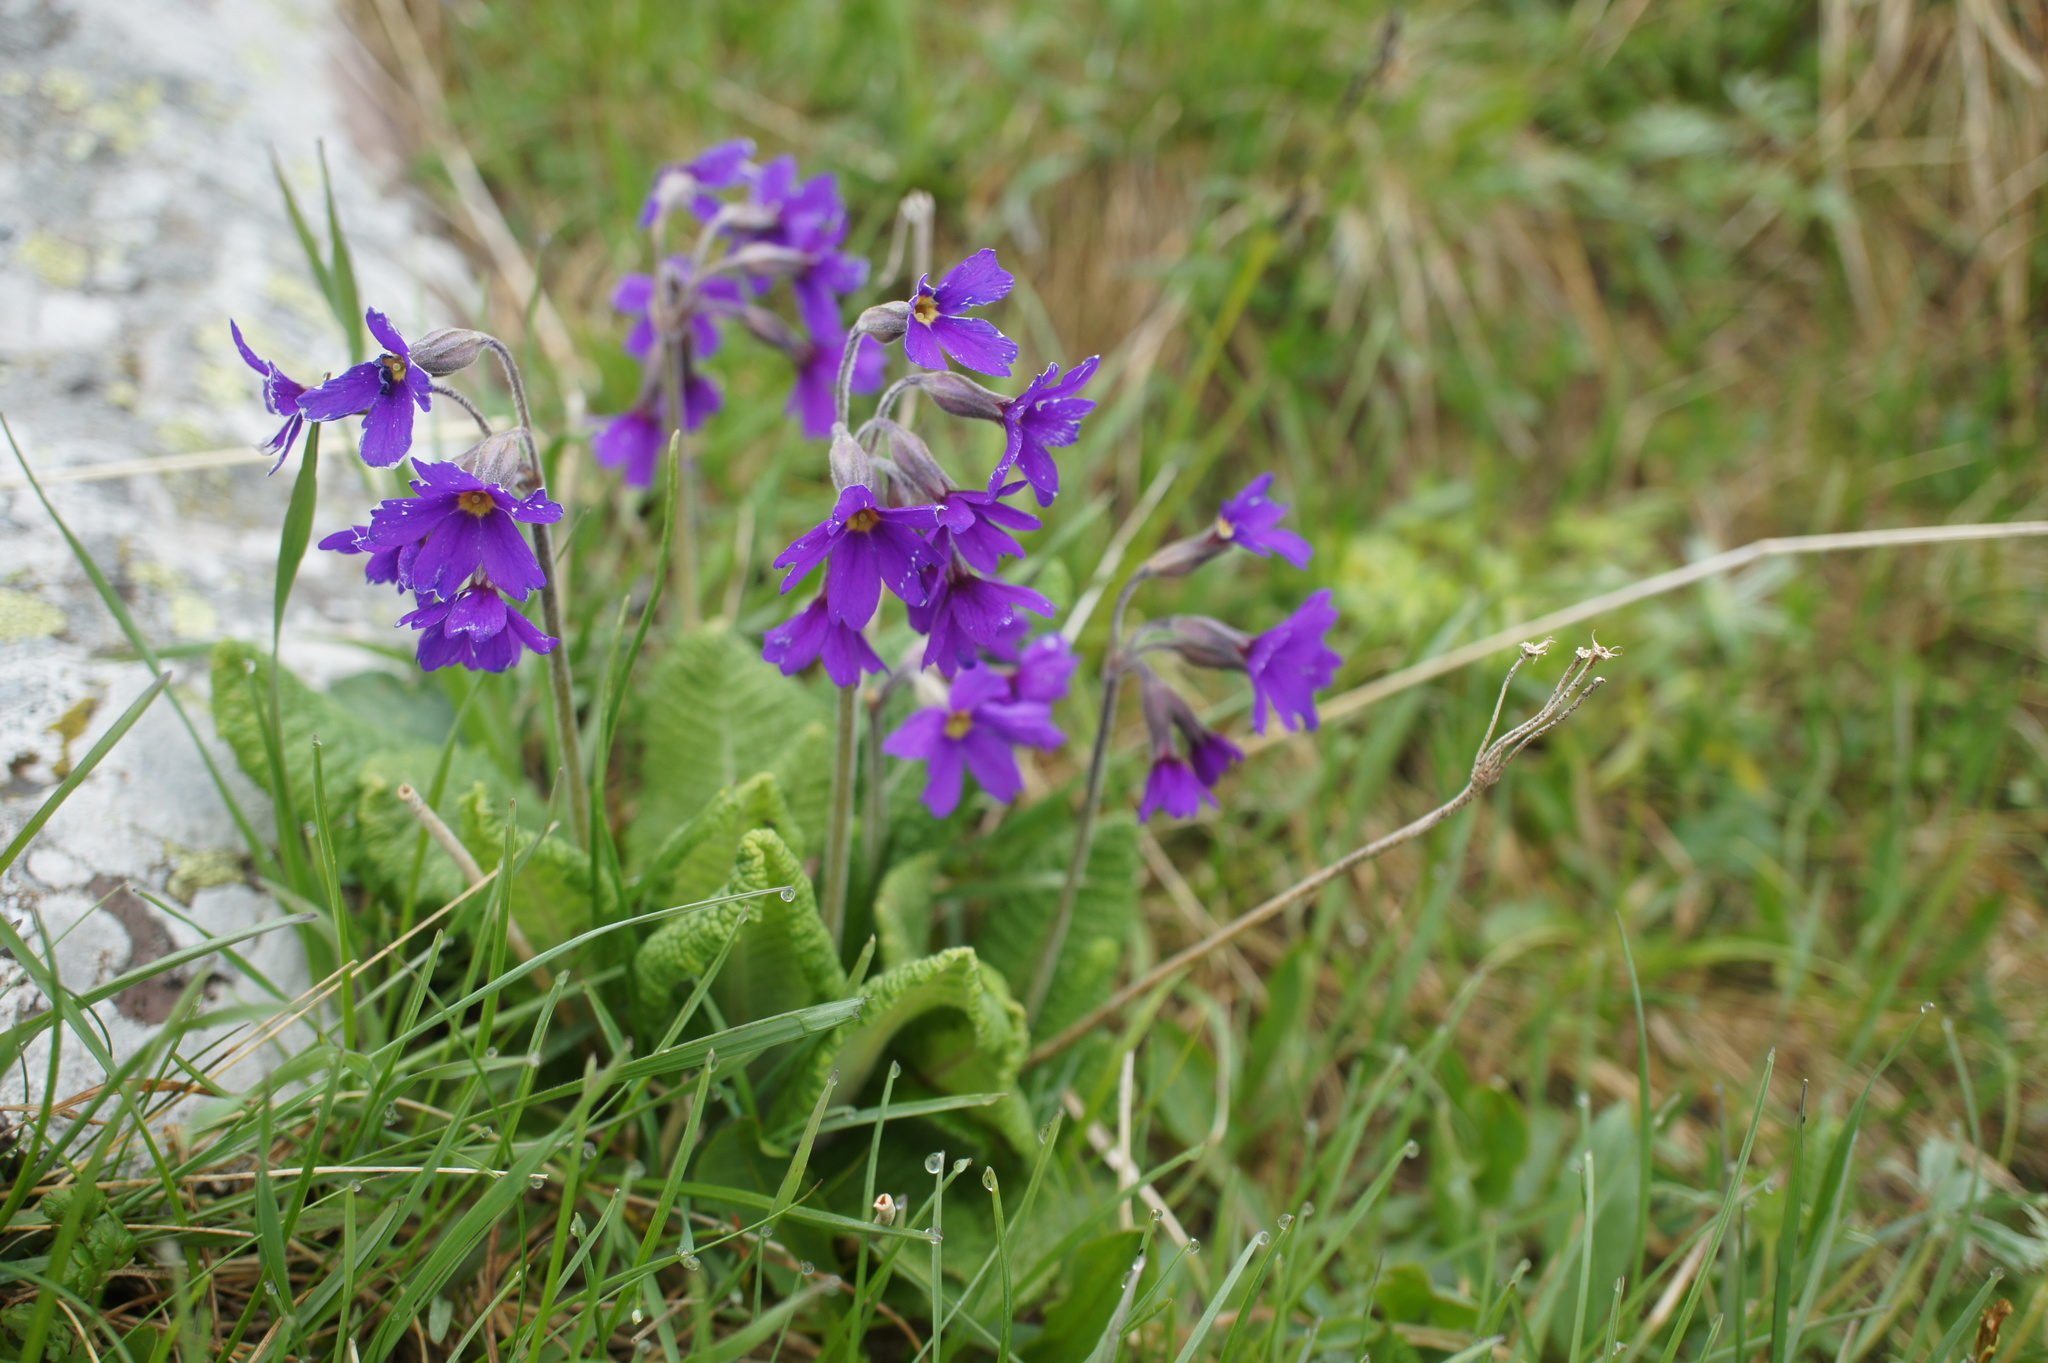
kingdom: Plantae
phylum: Tracheophyta
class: Magnoliopsida
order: Ericales
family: Primulaceae
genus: Primula
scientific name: Primula amoena
